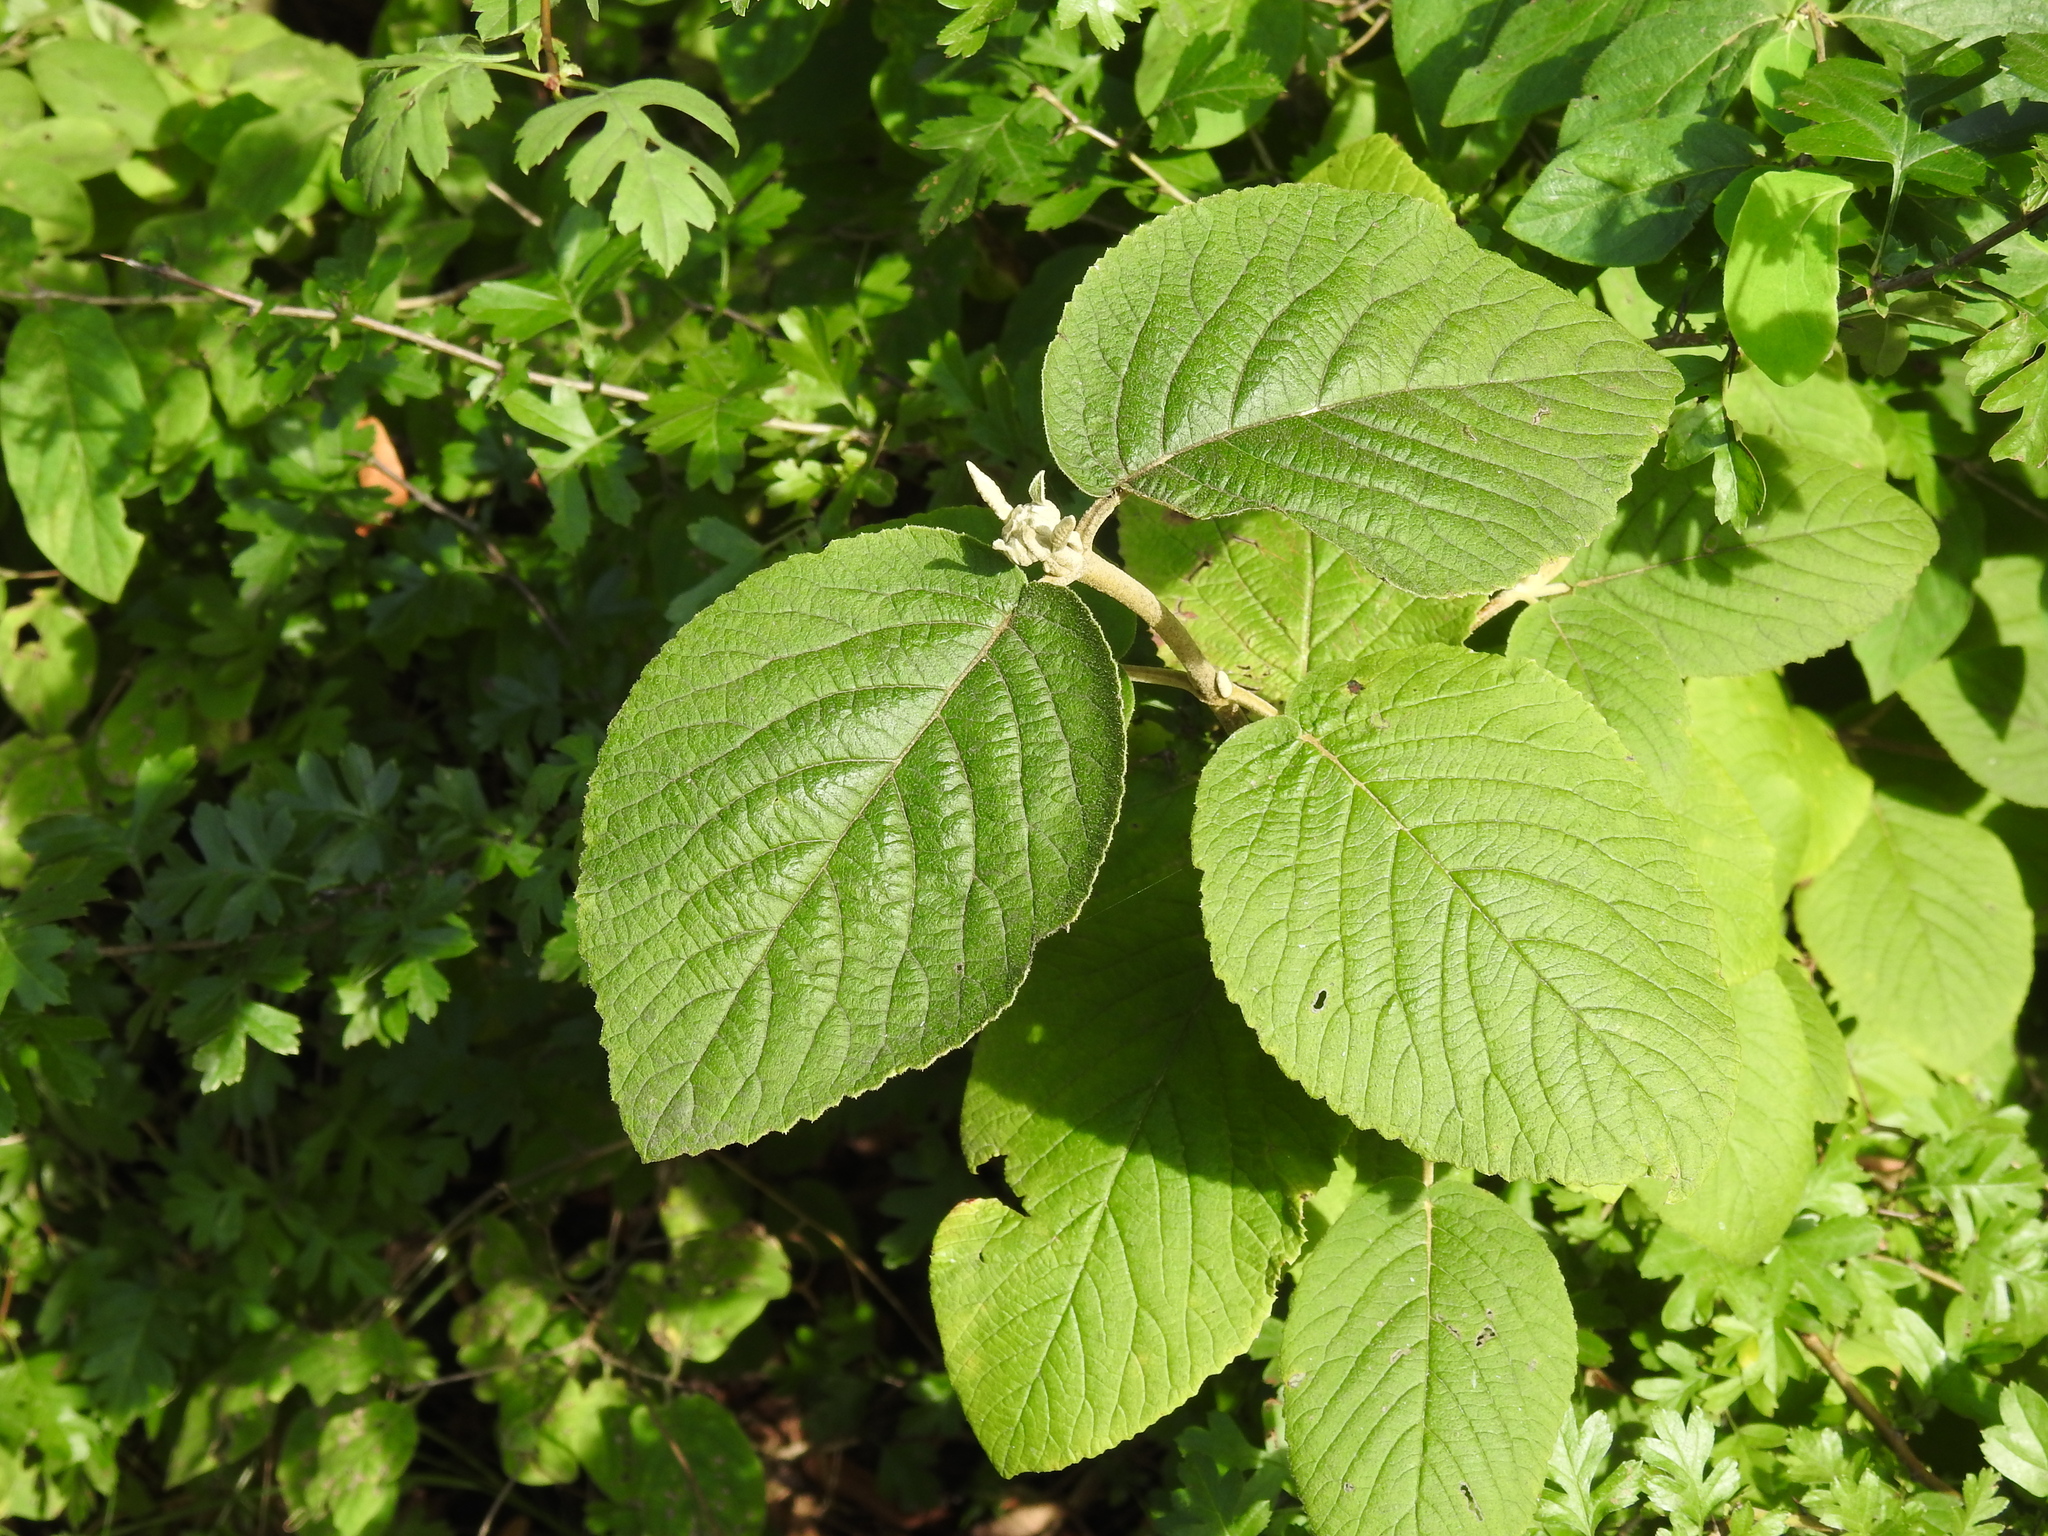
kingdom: Plantae
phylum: Tracheophyta
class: Magnoliopsida
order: Dipsacales
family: Viburnaceae
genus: Viburnum
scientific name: Viburnum lantana
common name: Wayfaring tree
